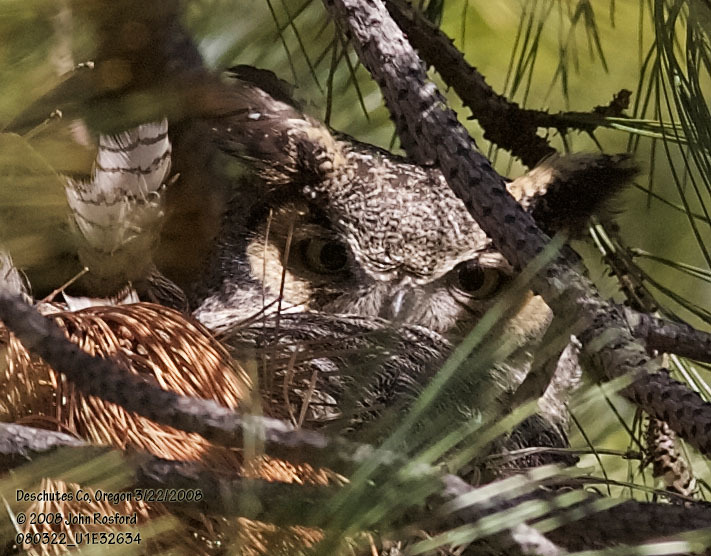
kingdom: Animalia
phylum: Chordata
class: Aves
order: Strigiformes
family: Strigidae
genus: Bubo
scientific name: Bubo virginianus
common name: Great horned owl
